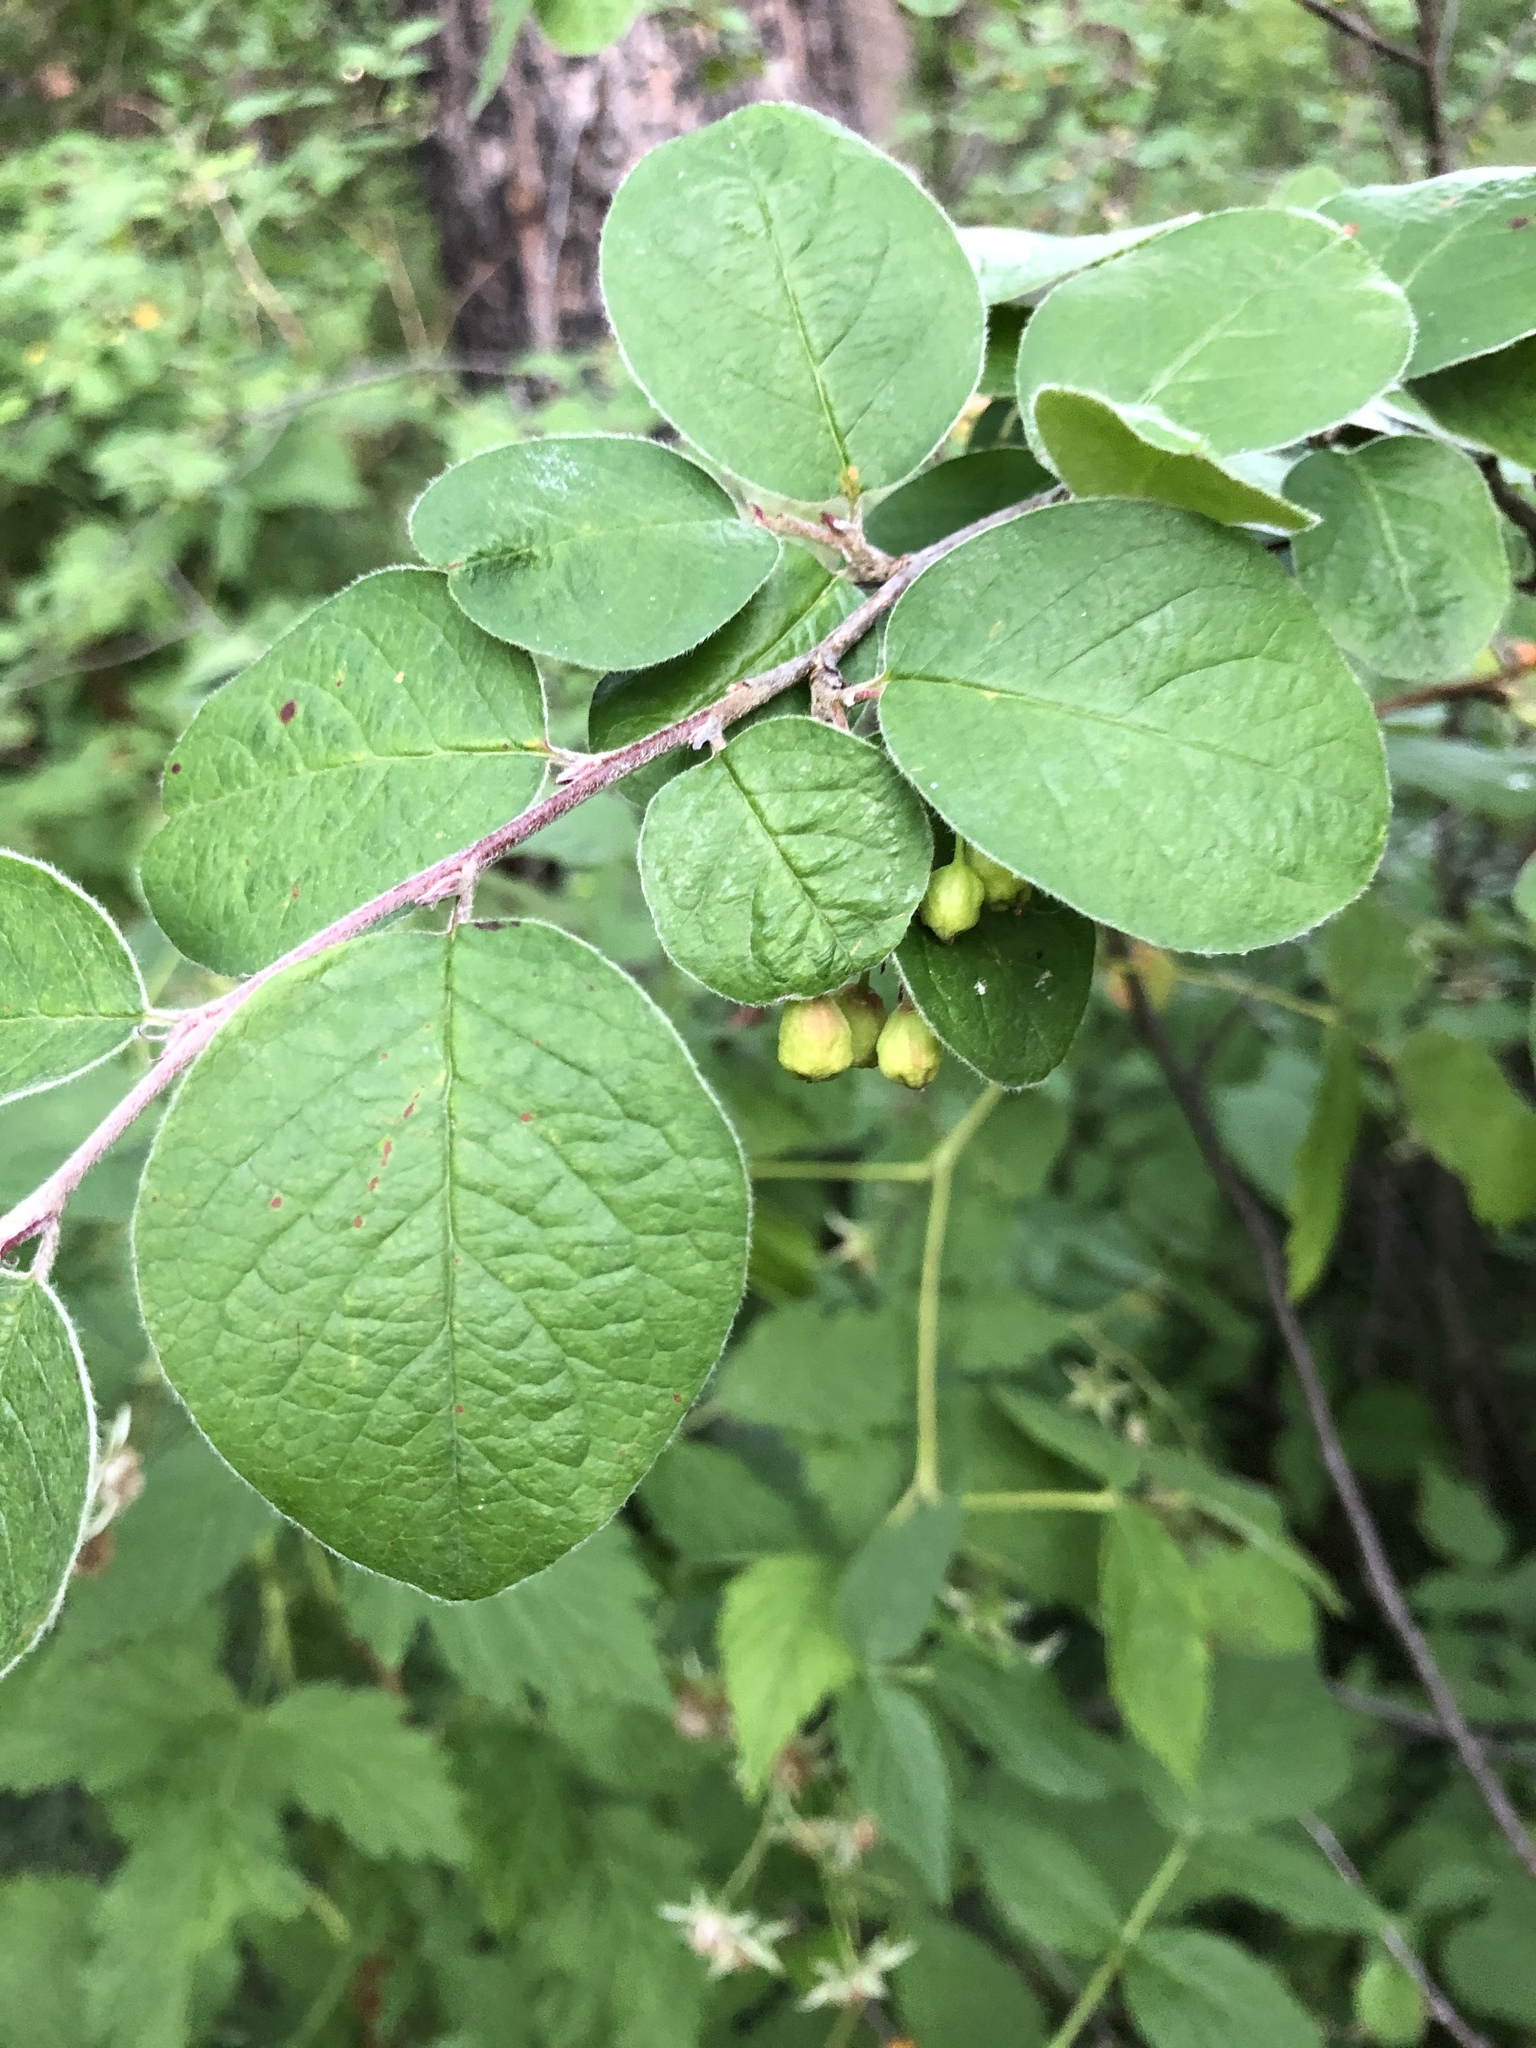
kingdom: Plantae
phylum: Tracheophyta
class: Magnoliopsida
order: Rosales
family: Rosaceae
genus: Cotoneaster
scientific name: Cotoneaster melanocarpus
